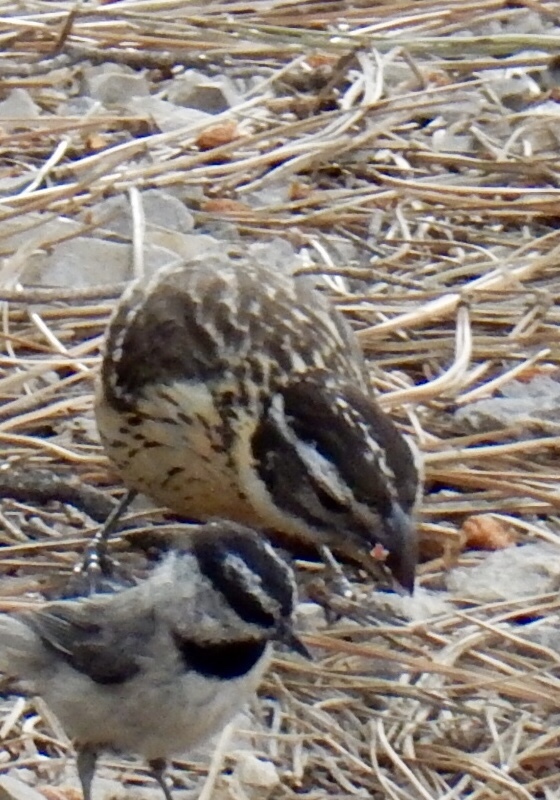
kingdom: Animalia
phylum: Chordata
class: Aves
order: Passeriformes
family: Cardinalidae
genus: Pheucticus
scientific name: Pheucticus melanocephalus
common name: Black-headed grosbeak
